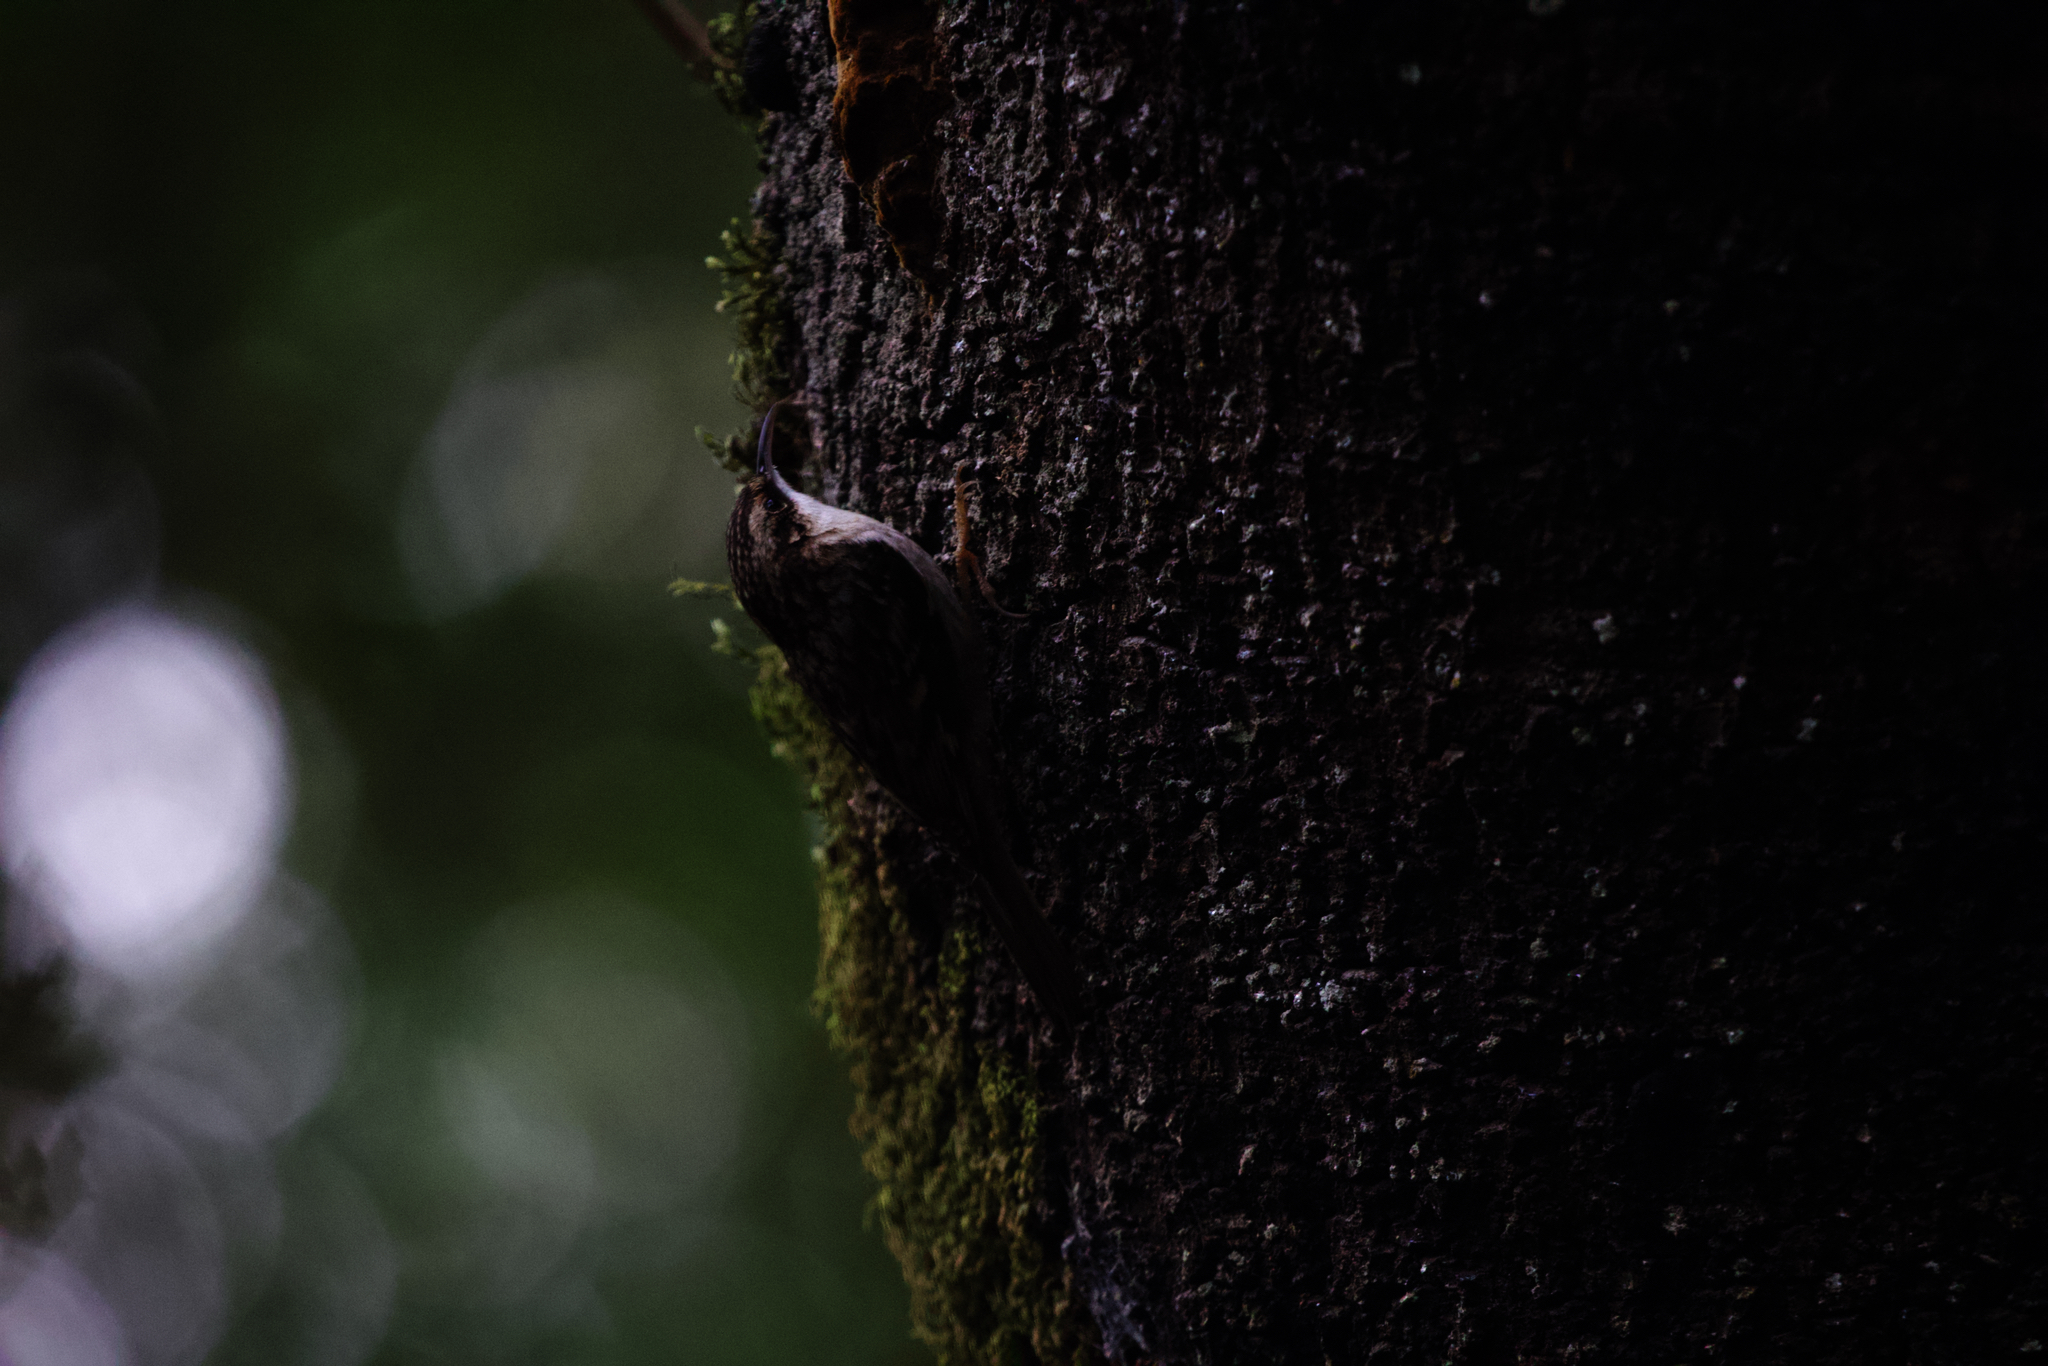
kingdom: Animalia
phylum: Chordata
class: Aves
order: Passeriformes
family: Certhiidae
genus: Certhia
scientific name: Certhia americana
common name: Brown creeper
